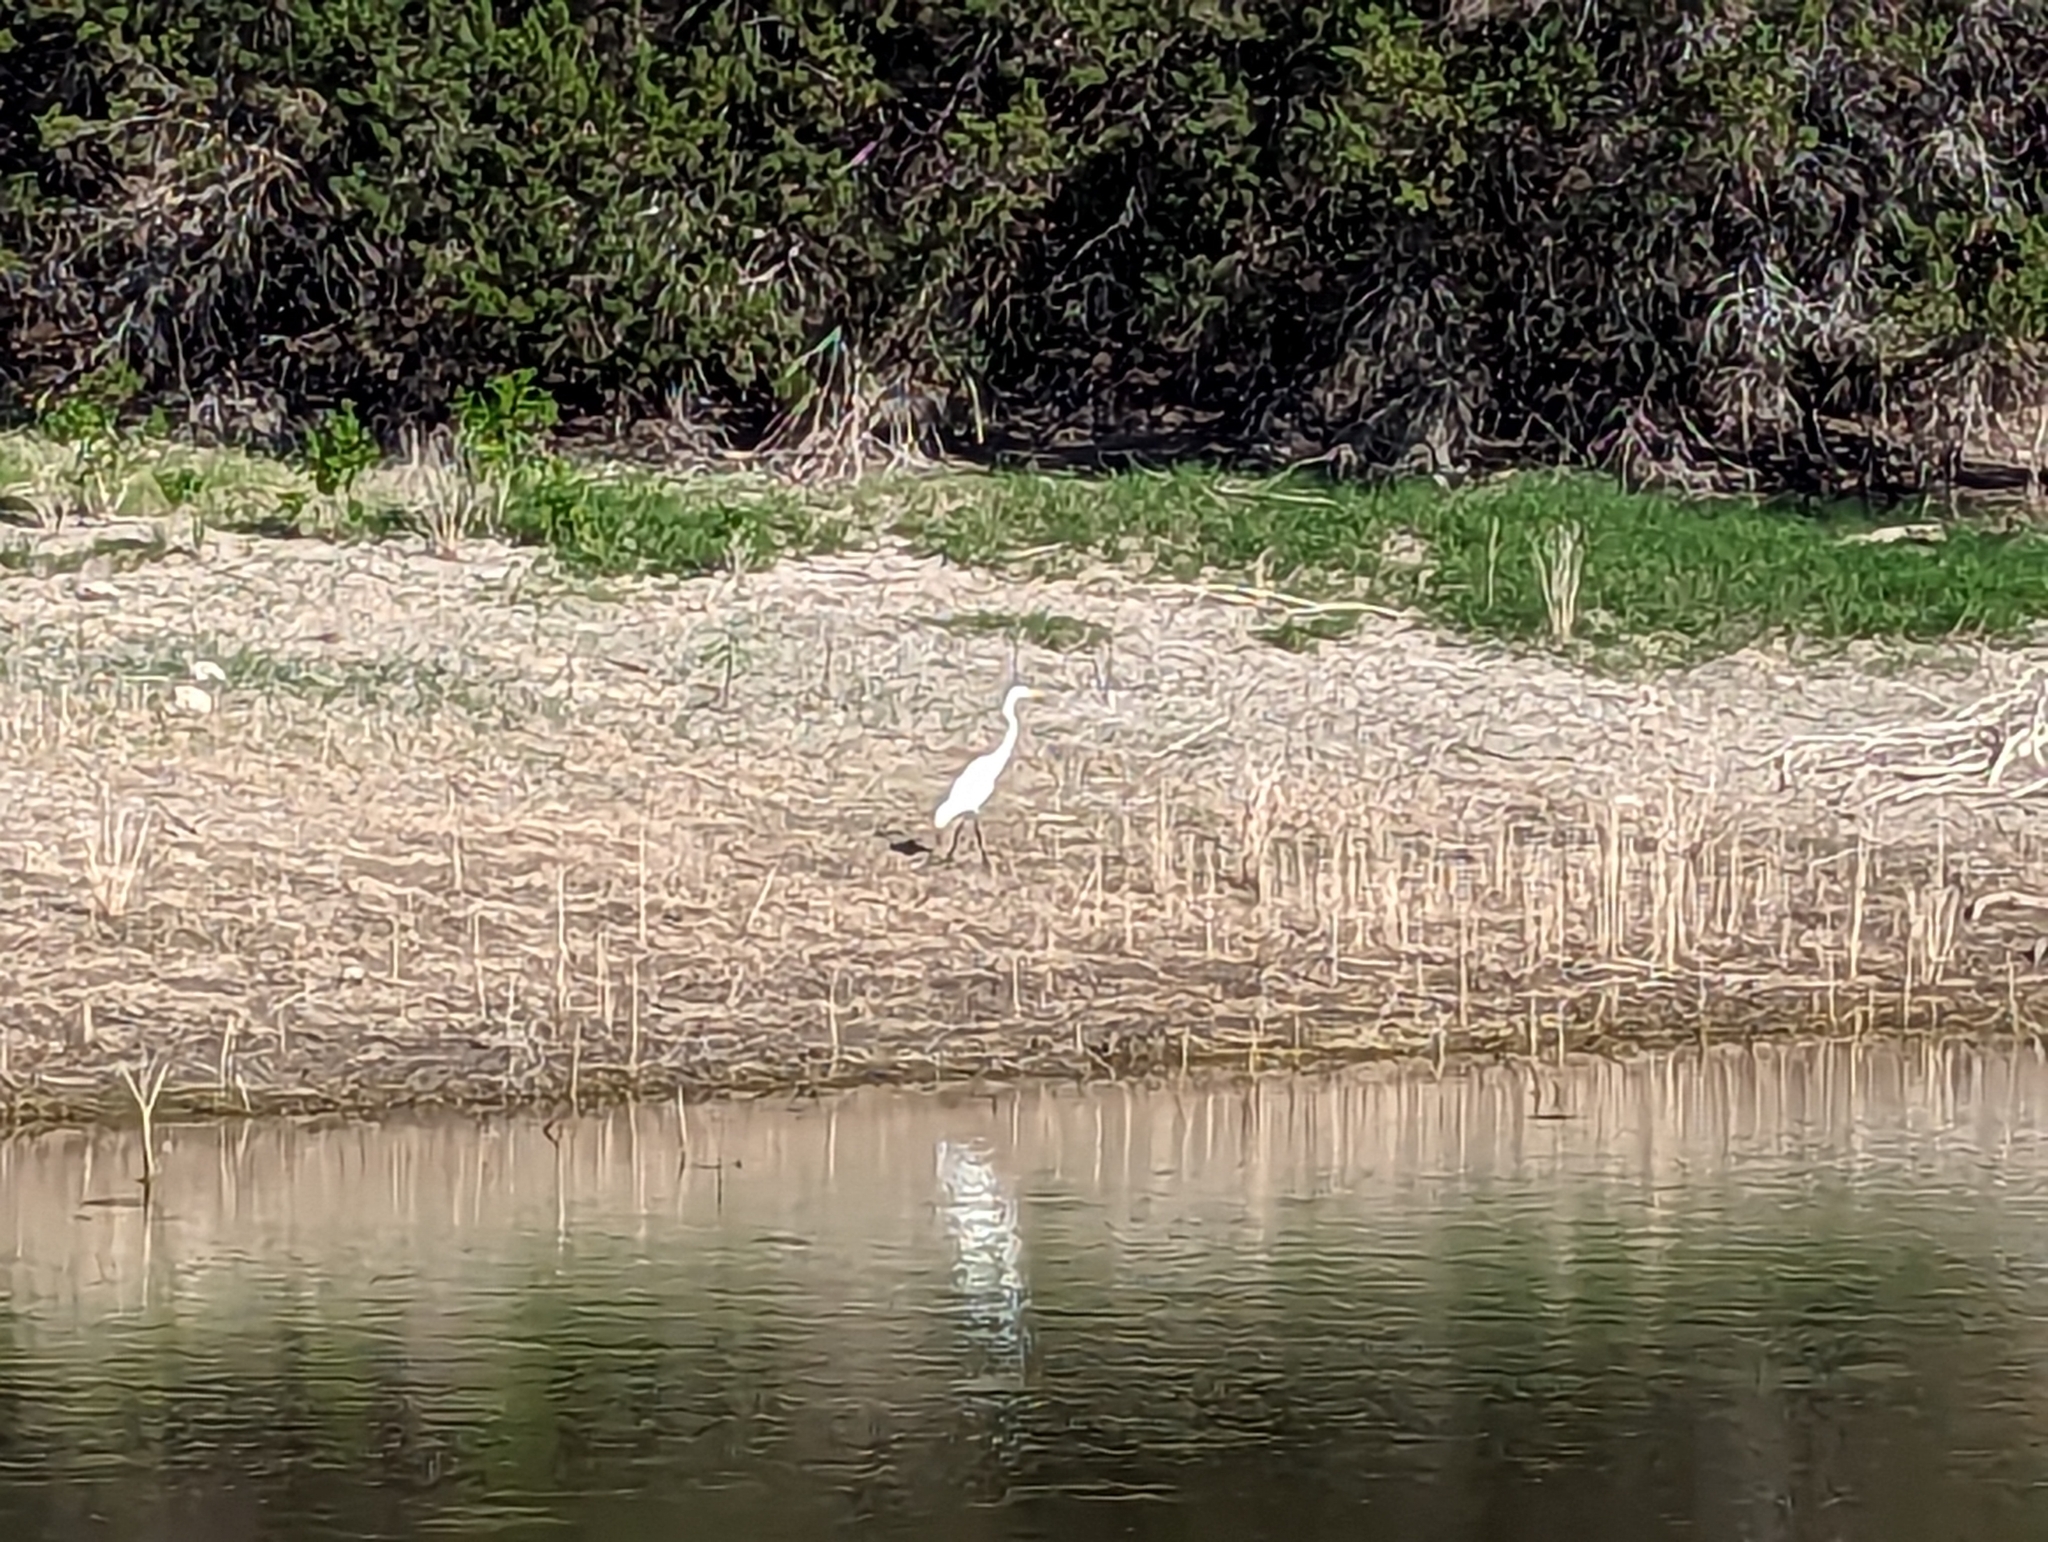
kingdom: Animalia
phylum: Chordata
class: Aves
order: Pelecaniformes
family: Ardeidae
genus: Ardea
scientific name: Ardea alba
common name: Great egret
